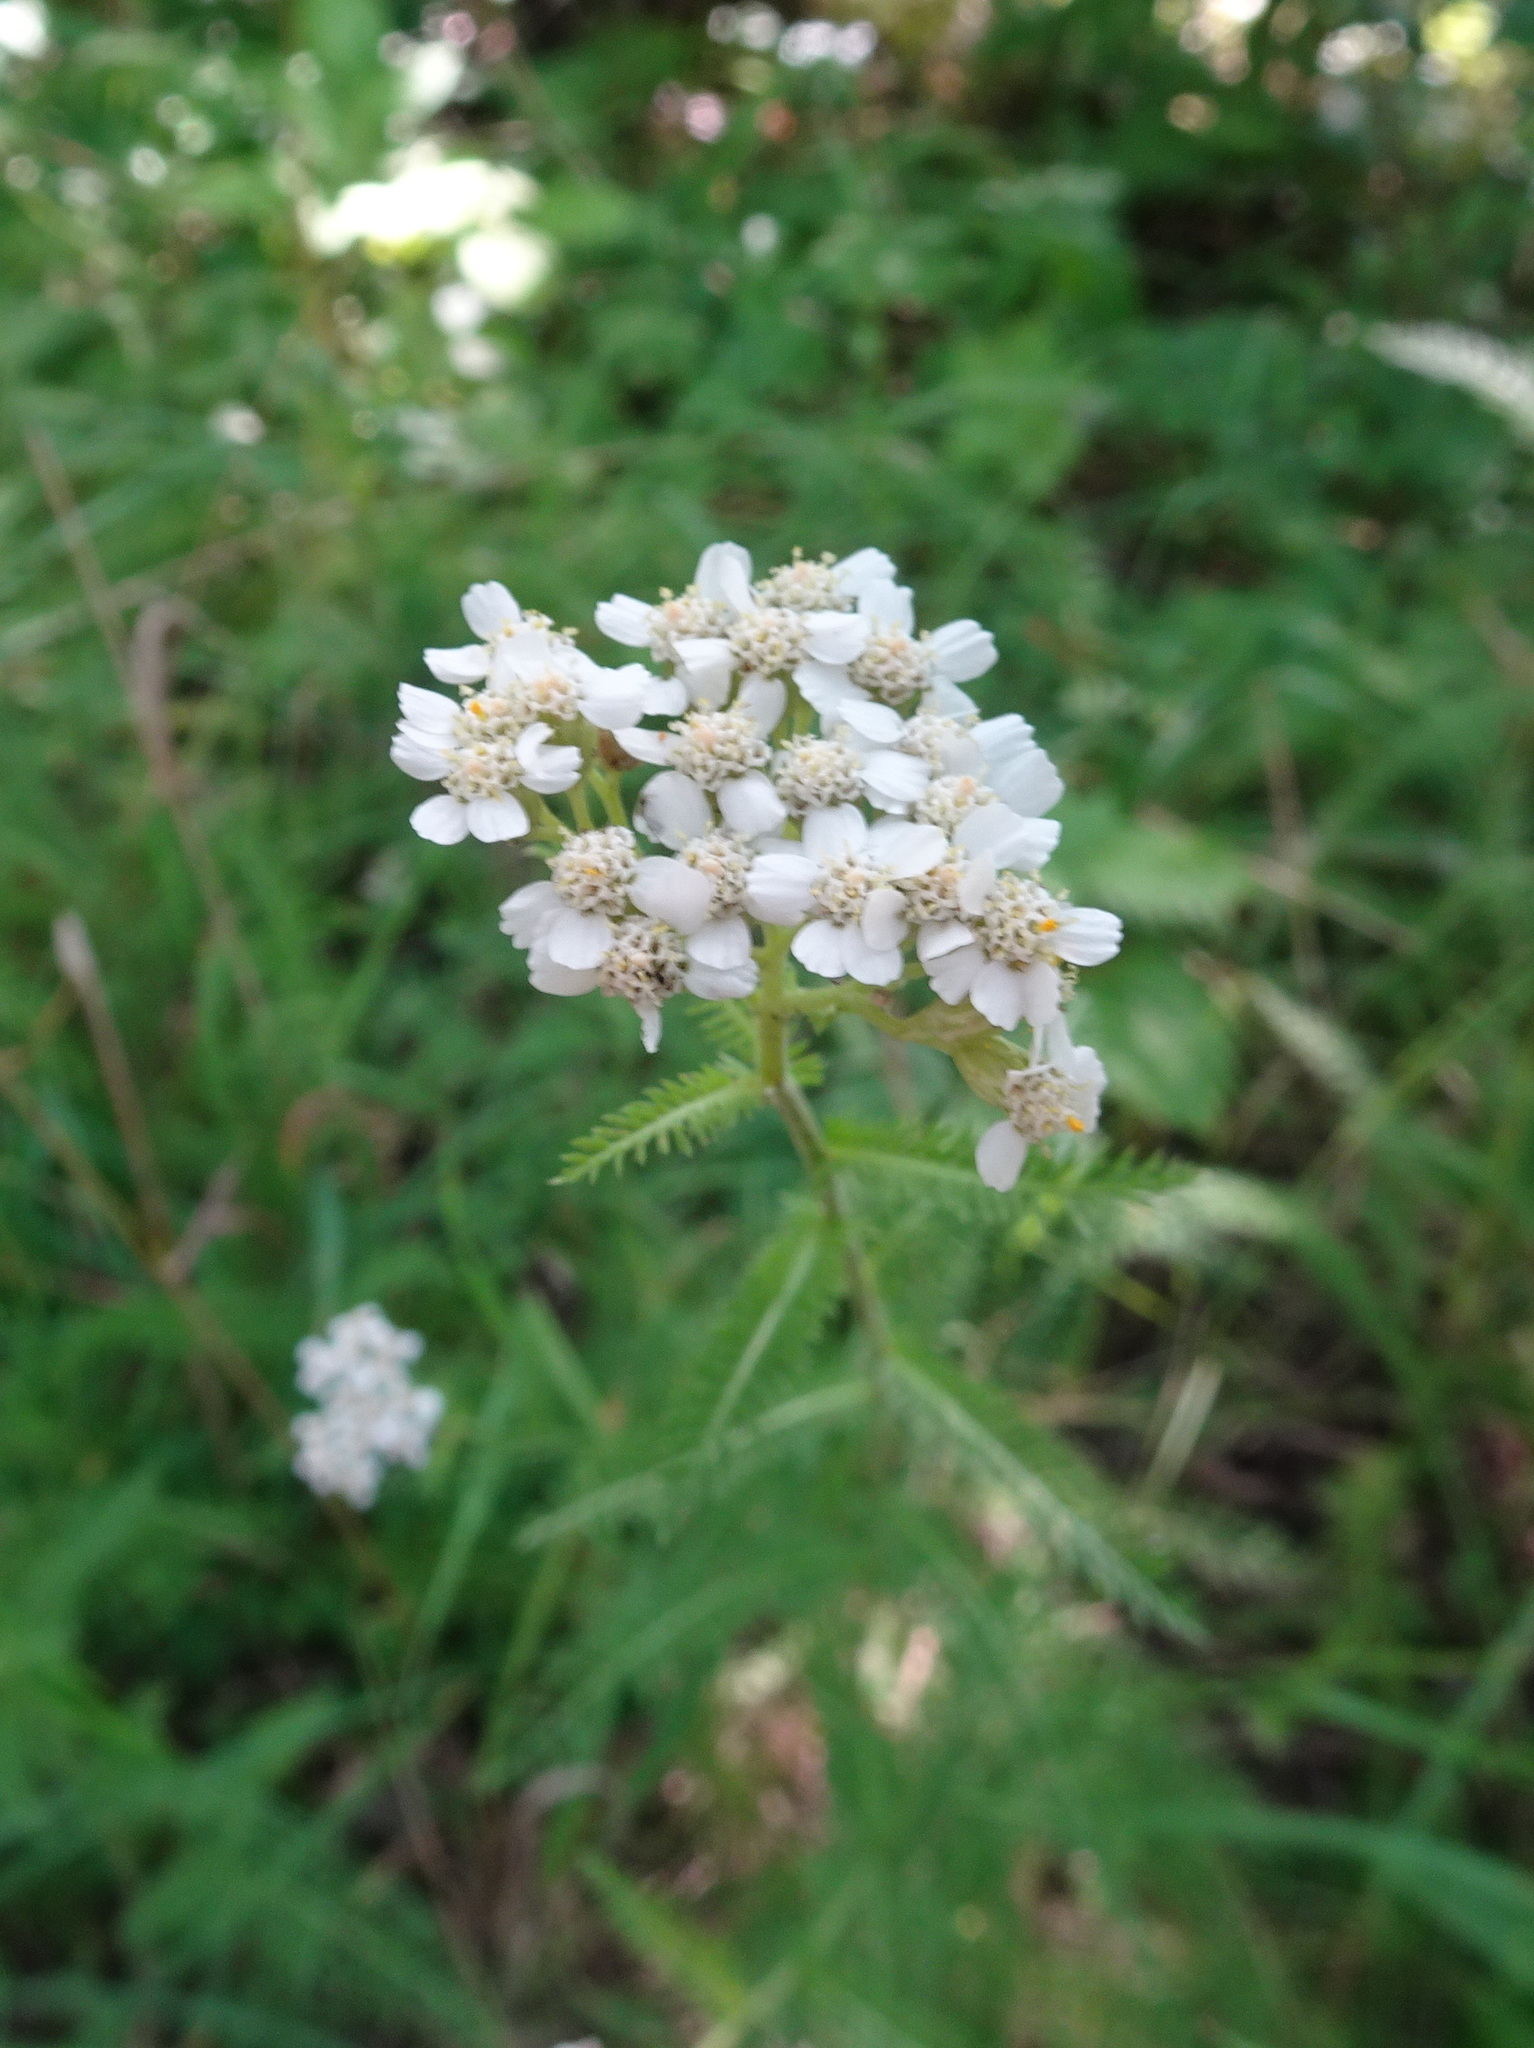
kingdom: Plantae
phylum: Tracheophyta
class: Magnoliopsida
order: Asterales
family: Asteraceae
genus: Achillea
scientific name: Achillea millefolium
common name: Yarrow
